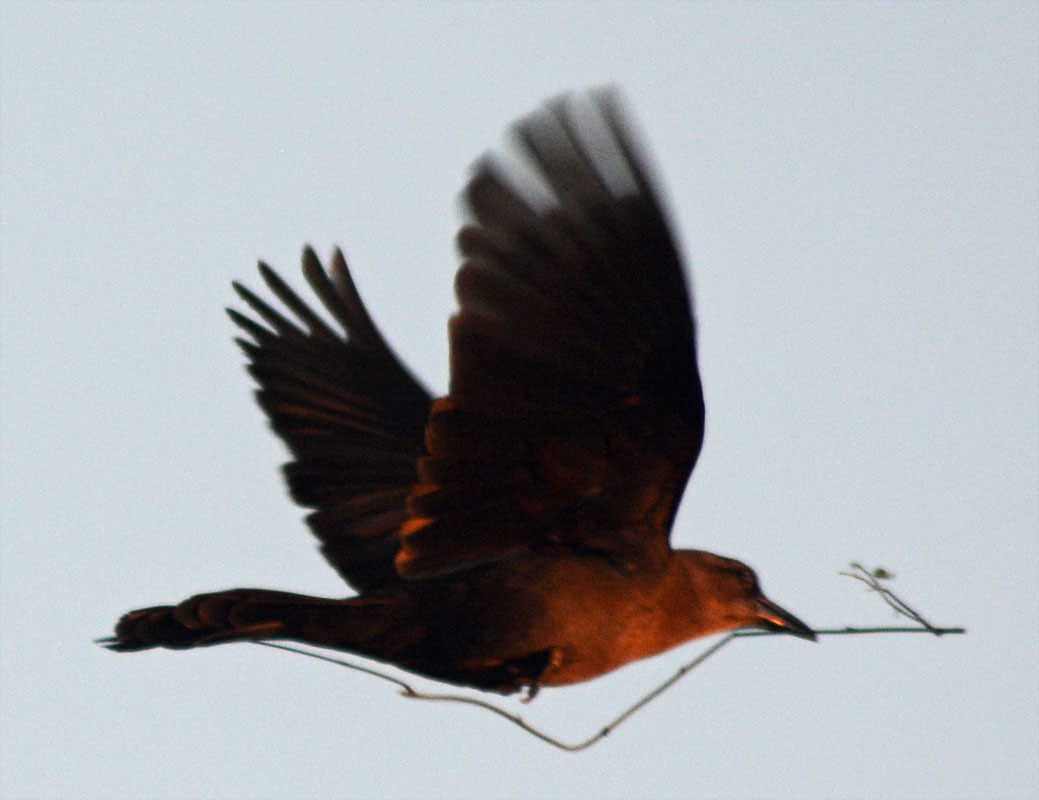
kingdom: Animalia
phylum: Chordata
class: Aves
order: Passeriformes
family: Icteridae
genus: Quiscalus
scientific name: Quiscalus mexicanus
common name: Great-tailed grackle
